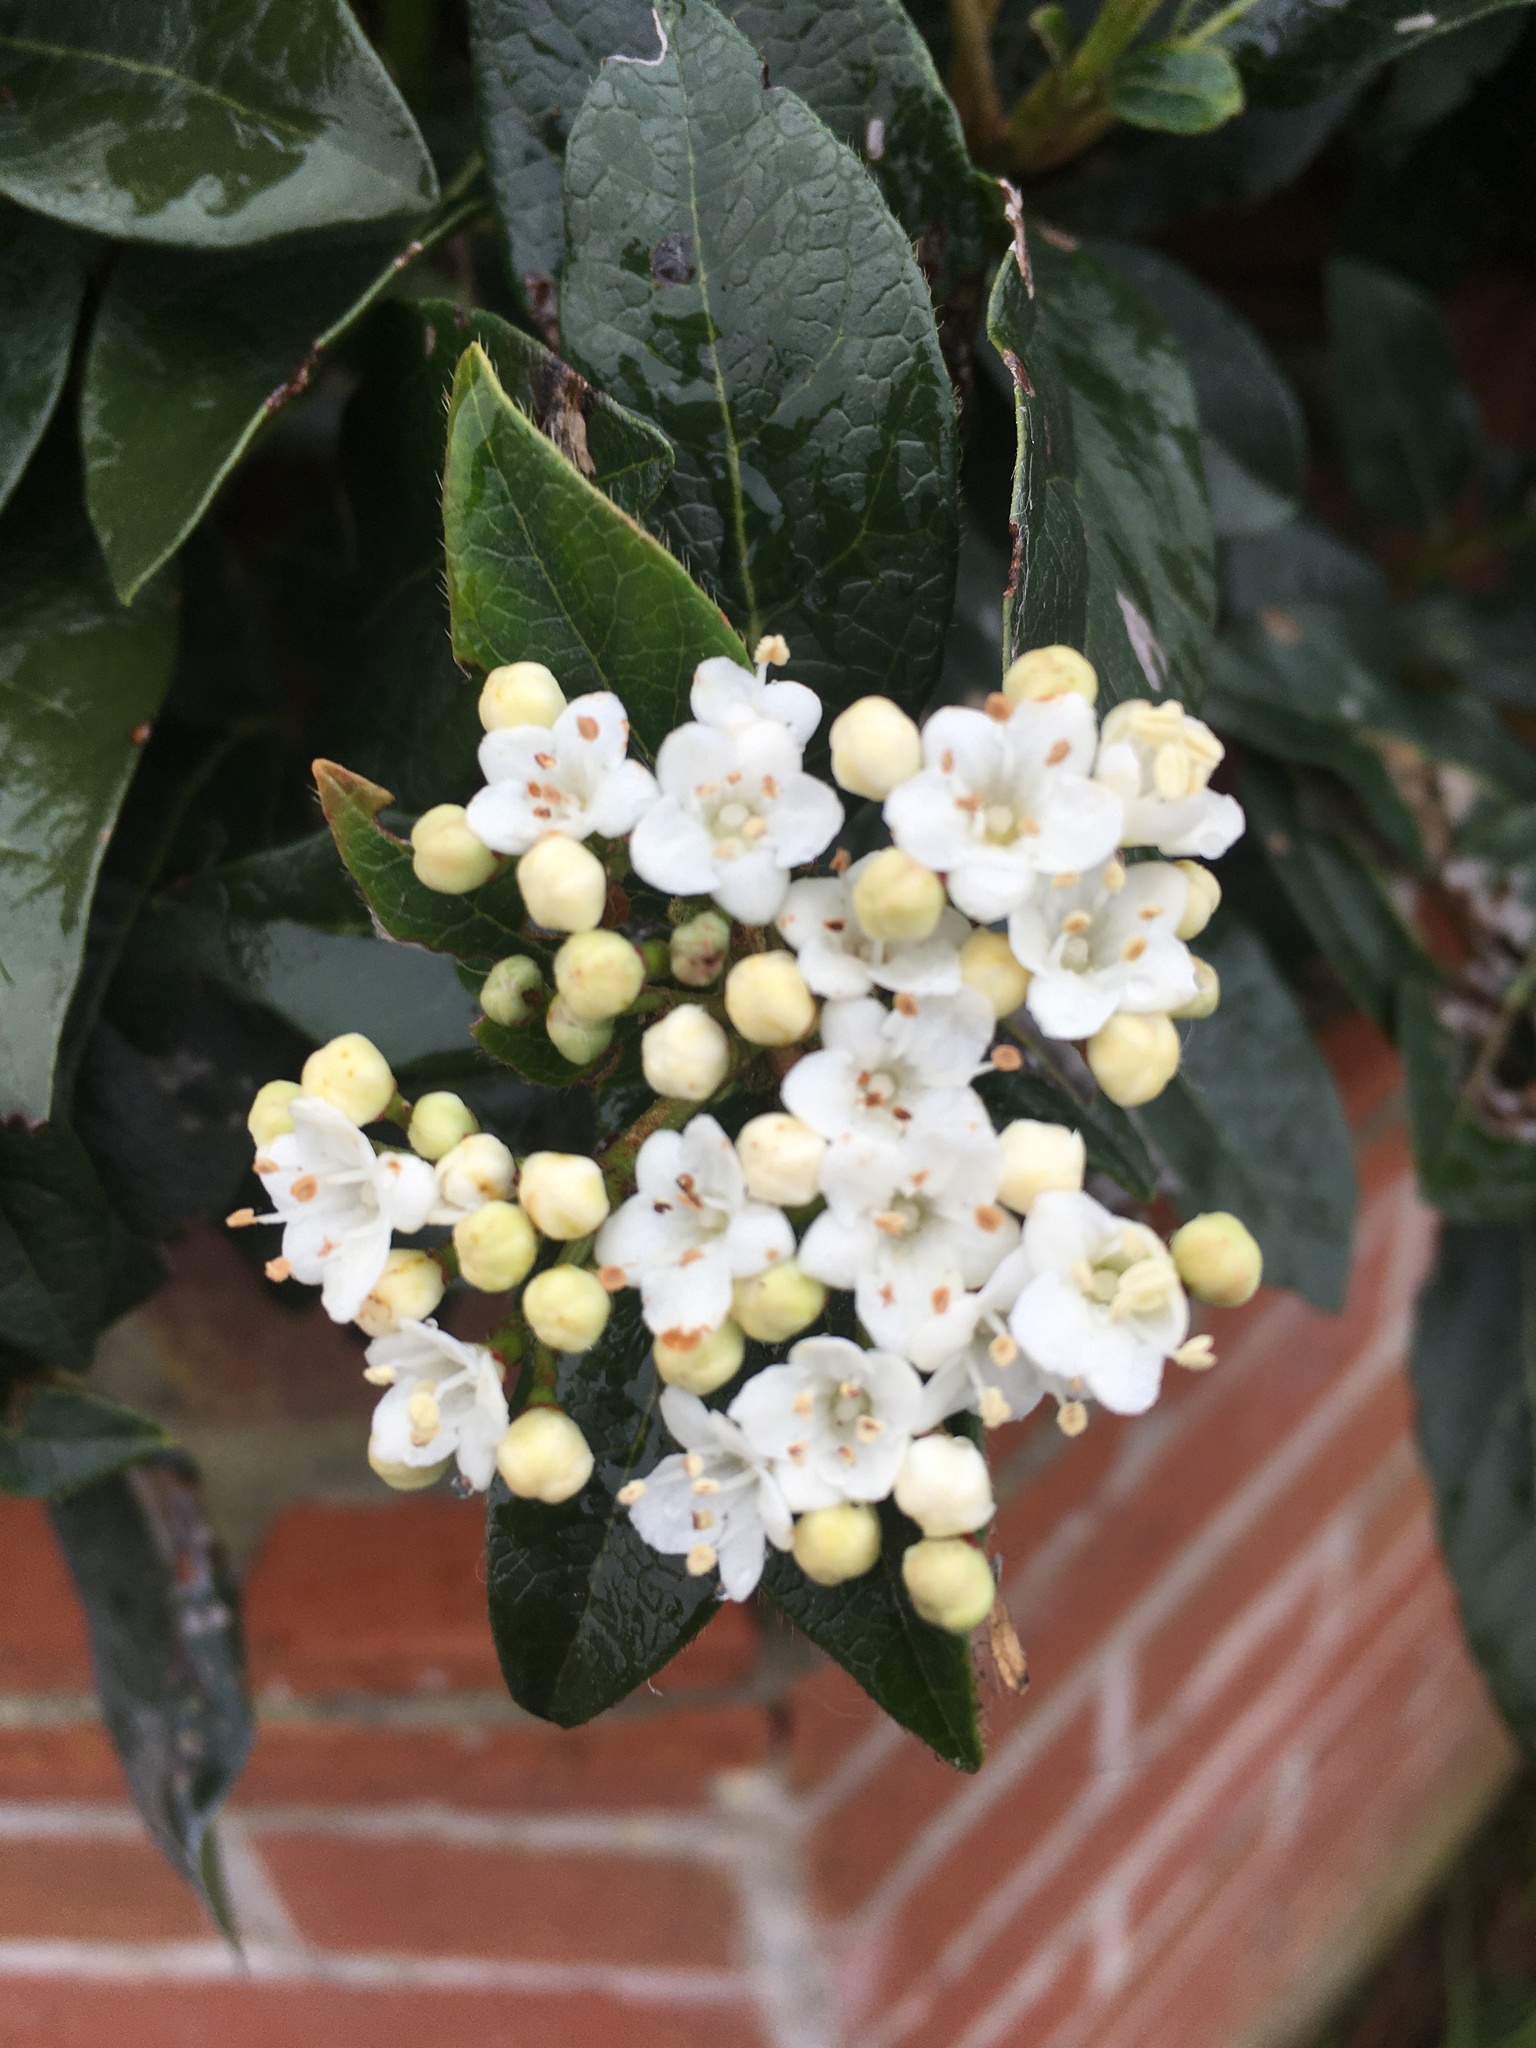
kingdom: Plantae
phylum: Tracheophyta
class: Magnoliopsida
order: Dipsacales
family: Viburnaceae
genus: Viburnum
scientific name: Viburnum tinus
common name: Laurustinus
